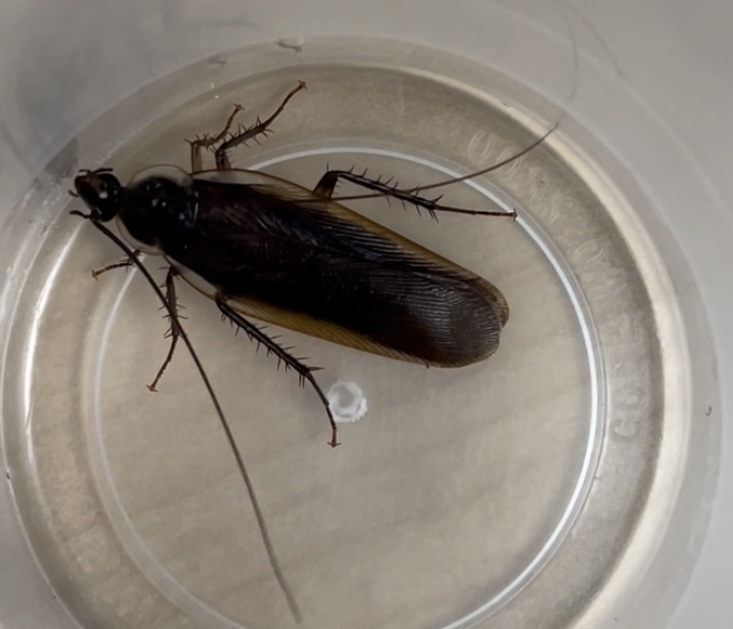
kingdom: Animalia
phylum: Arthropoda
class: Insecta
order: Blattodea
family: Ectobiidae
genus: Parcoblatta
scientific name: Parcoblatta pennsylvanica
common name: Pennsylvanian wood cockroach
